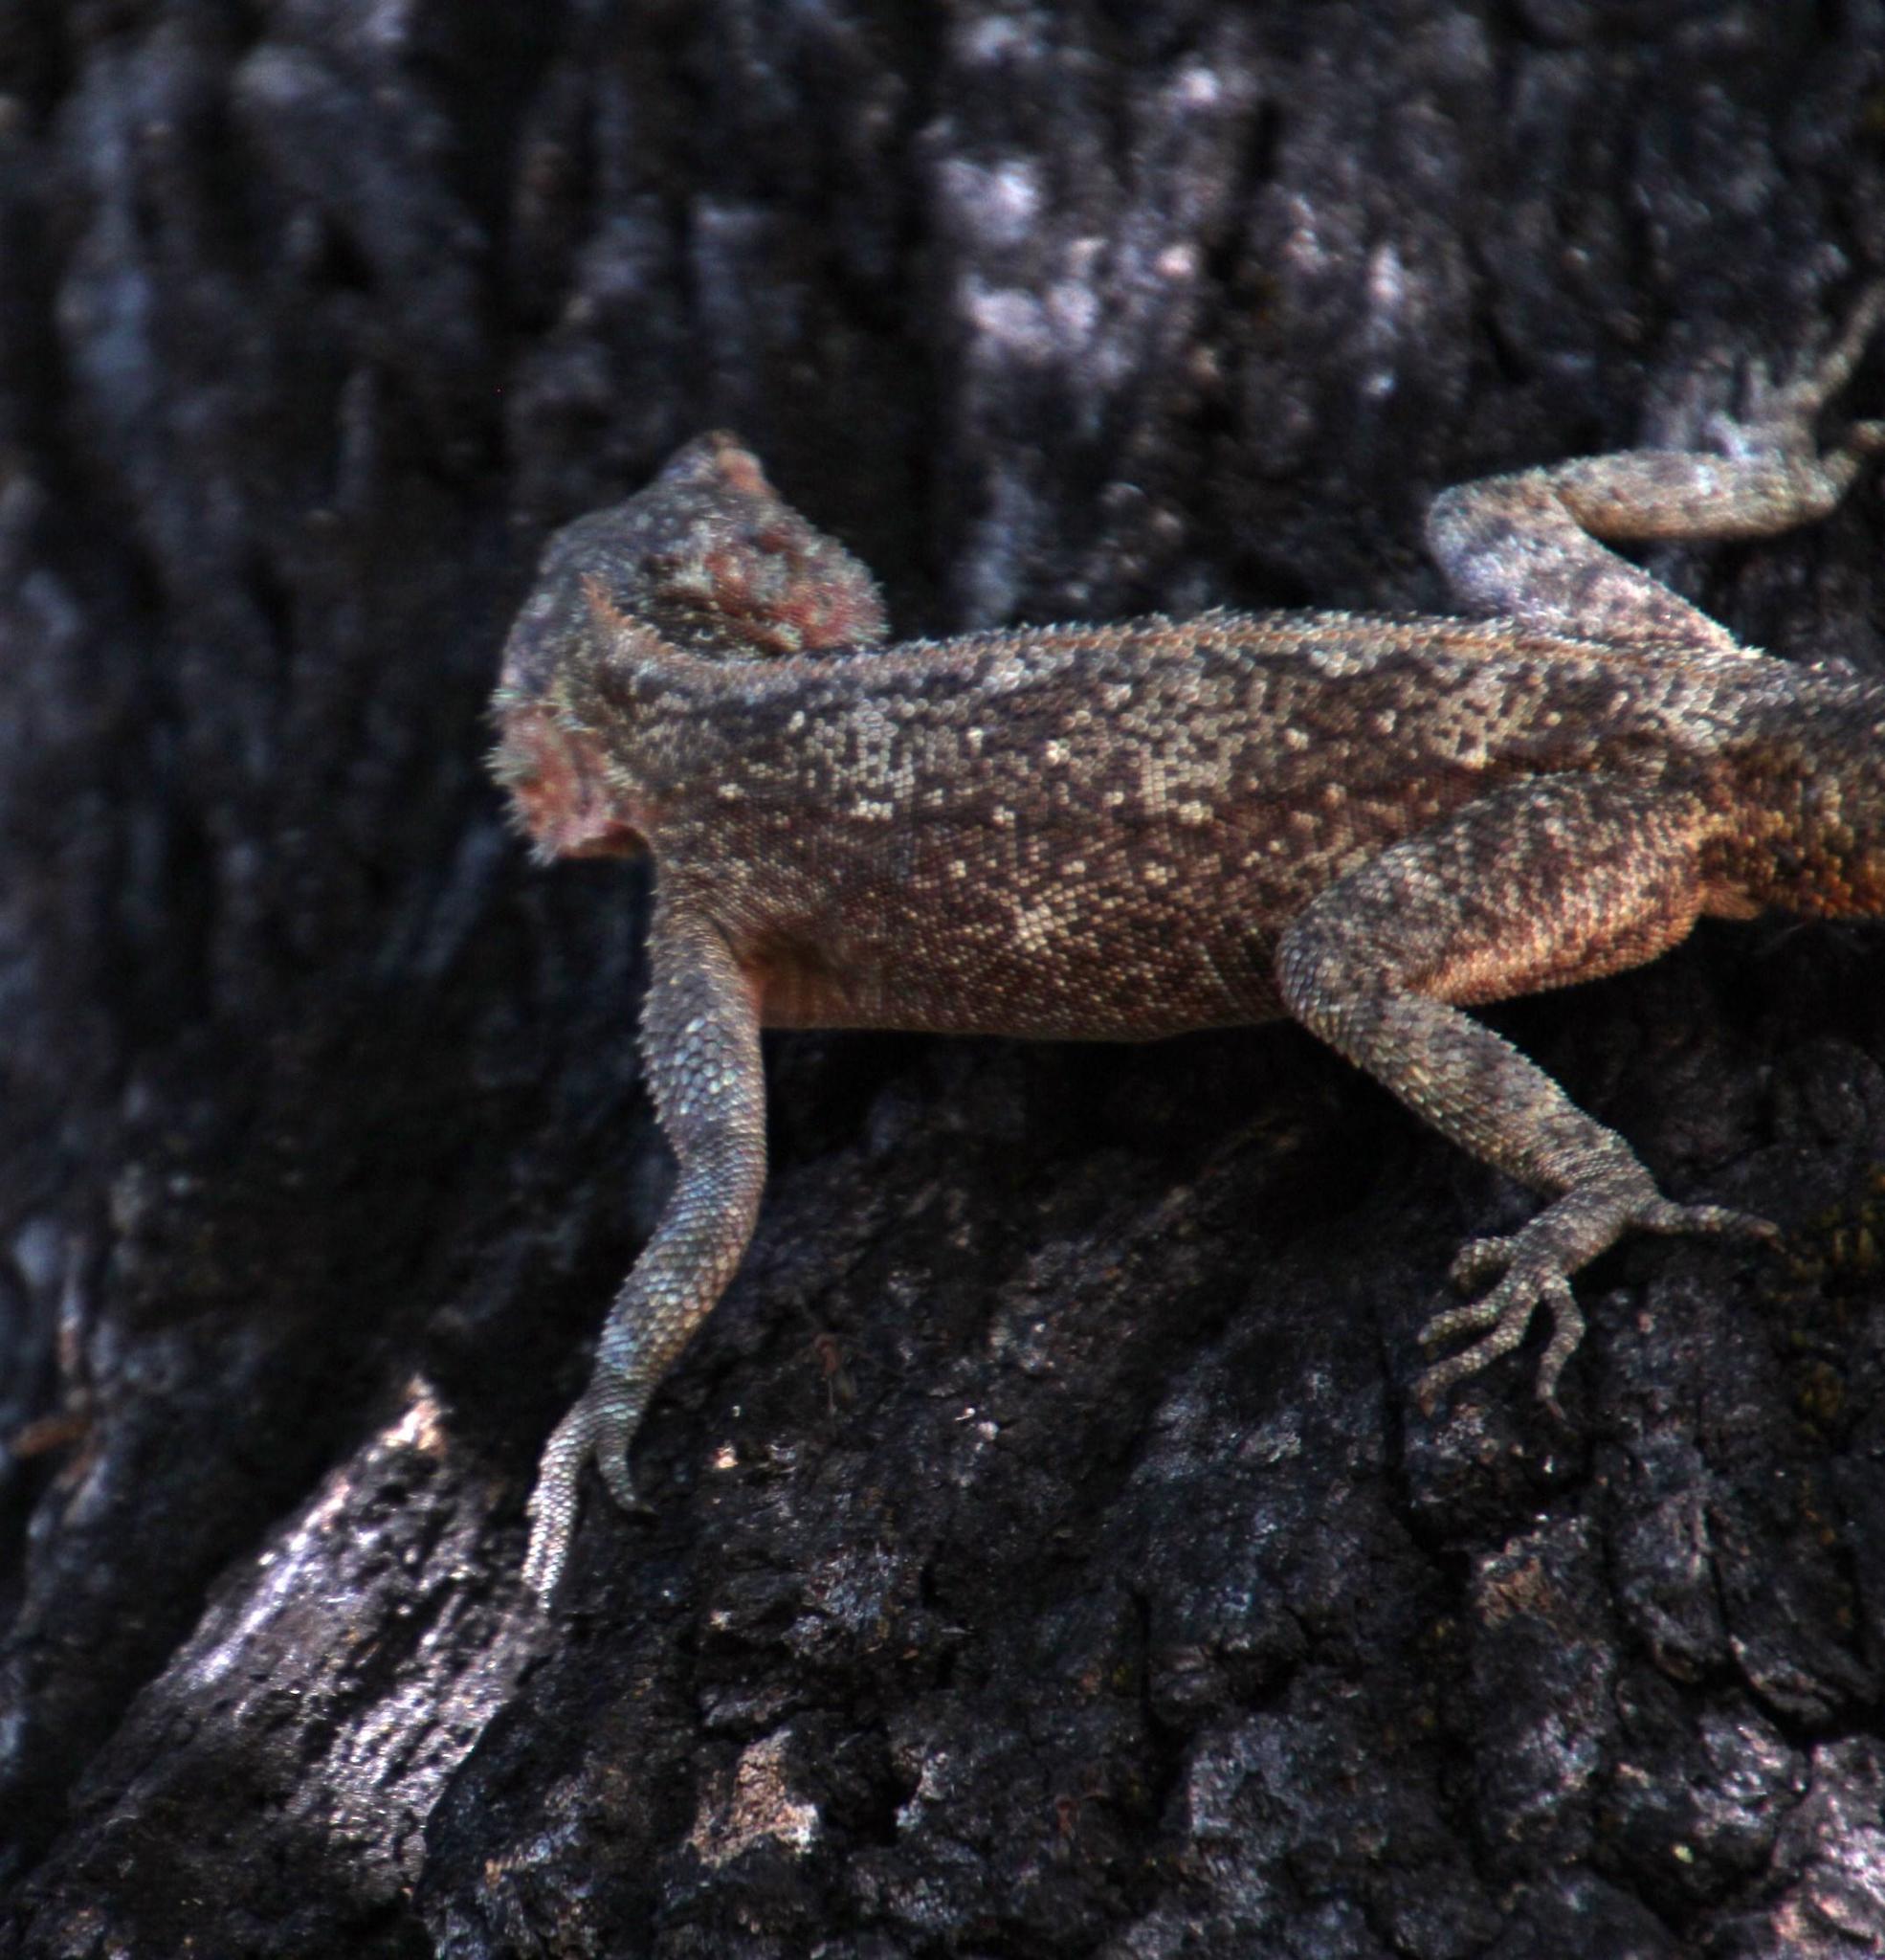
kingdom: Animalia
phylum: Chordata
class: Squamata
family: Agamidae
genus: Agama
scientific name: Agama atra
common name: Southern african rock agama
